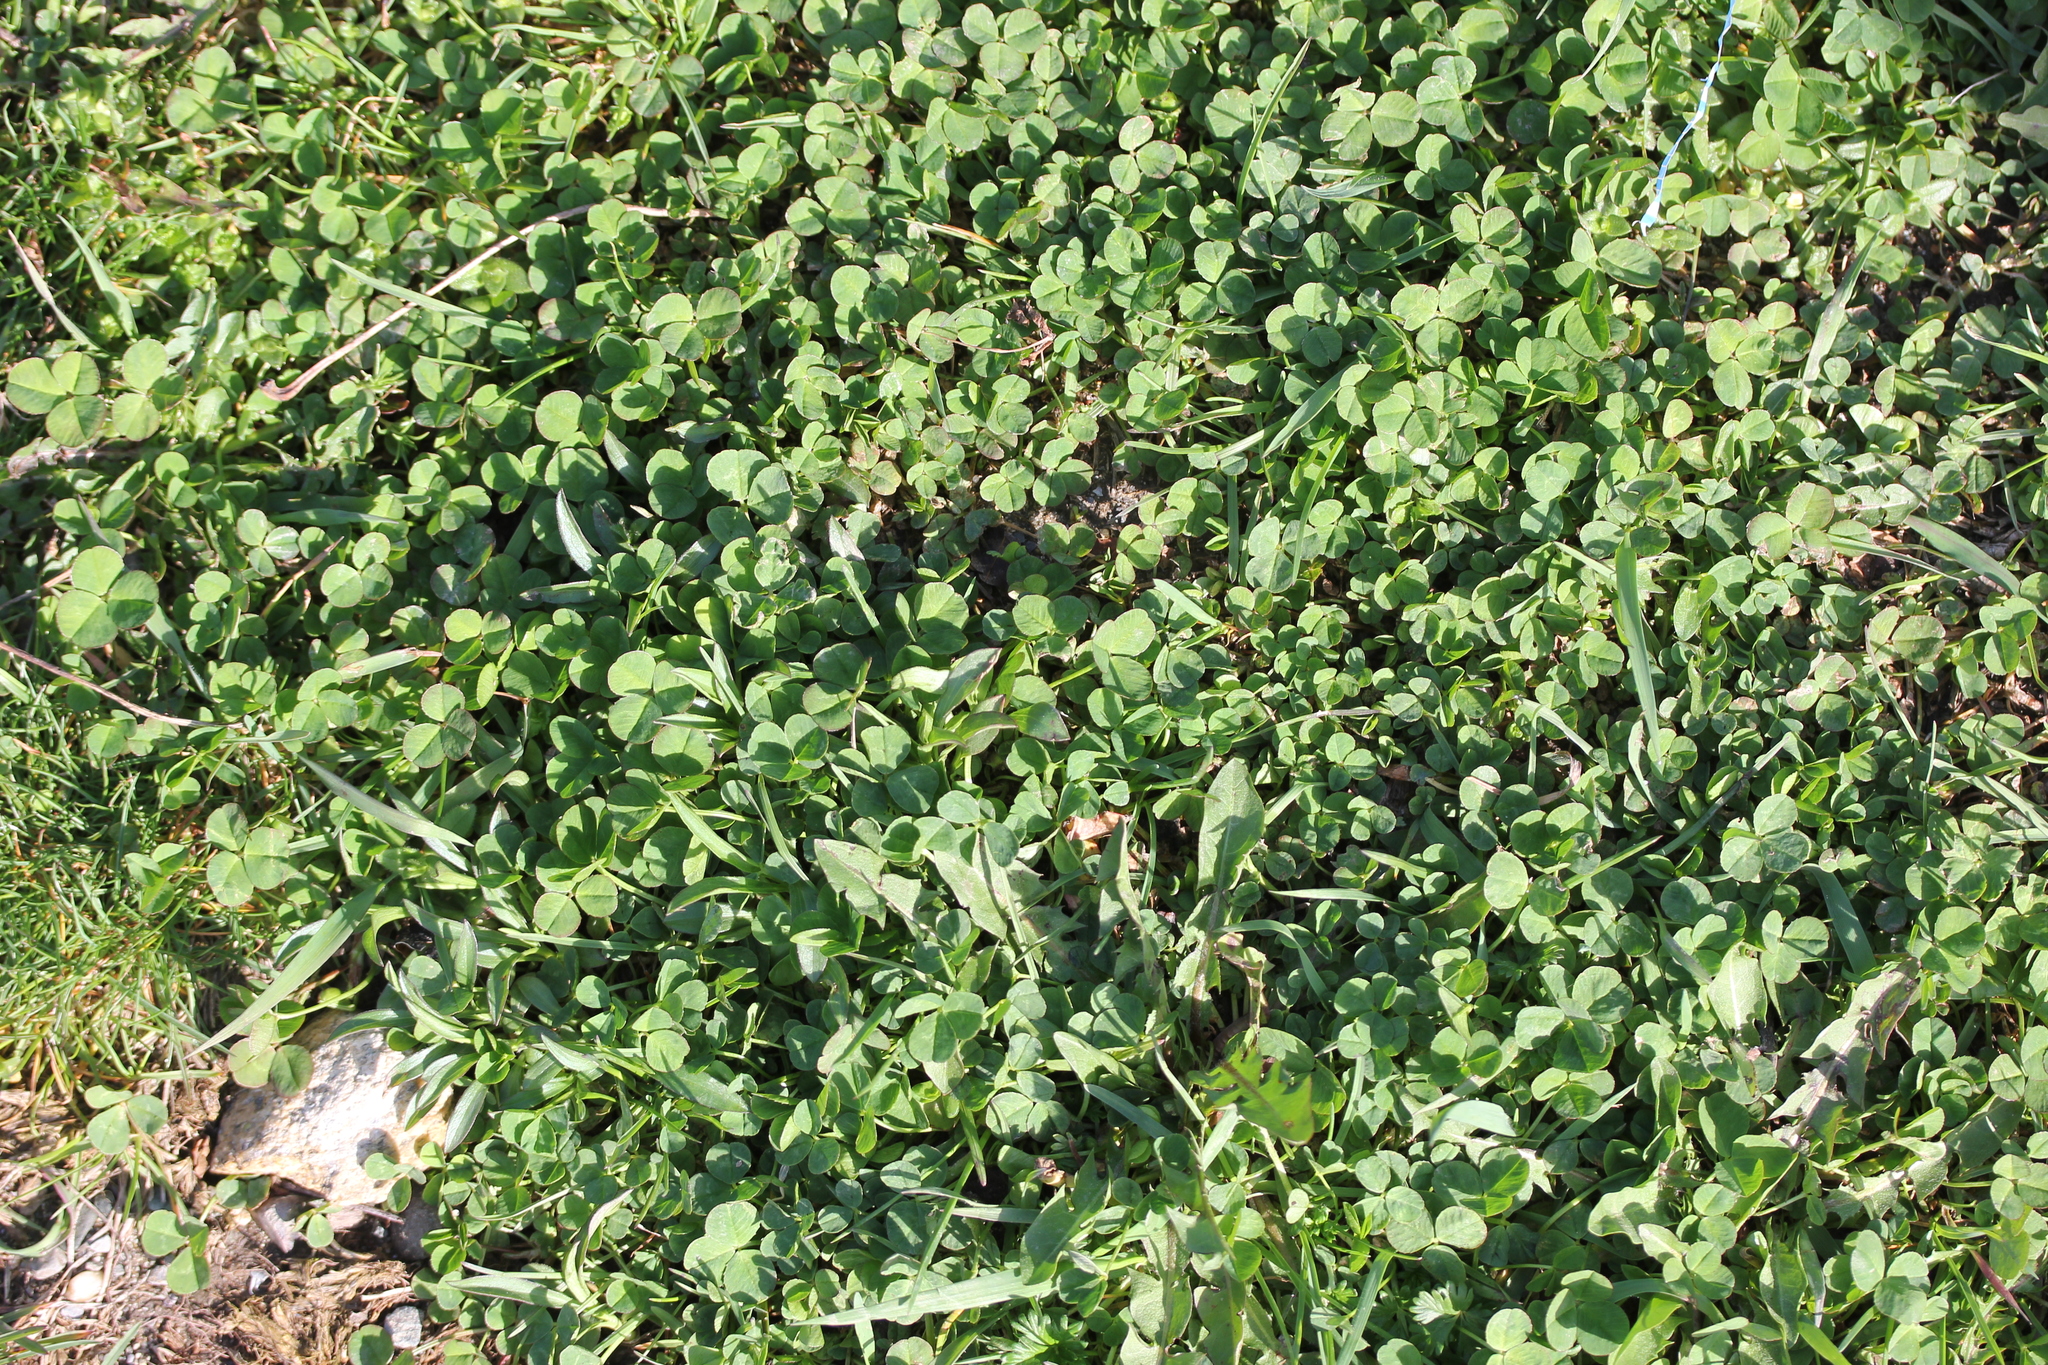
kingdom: Plantae
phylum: Tracheophyta
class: Magnoliopsida
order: Fabales
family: Fabaceae
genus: Trifolium
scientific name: Trifolium repens
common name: White clover
